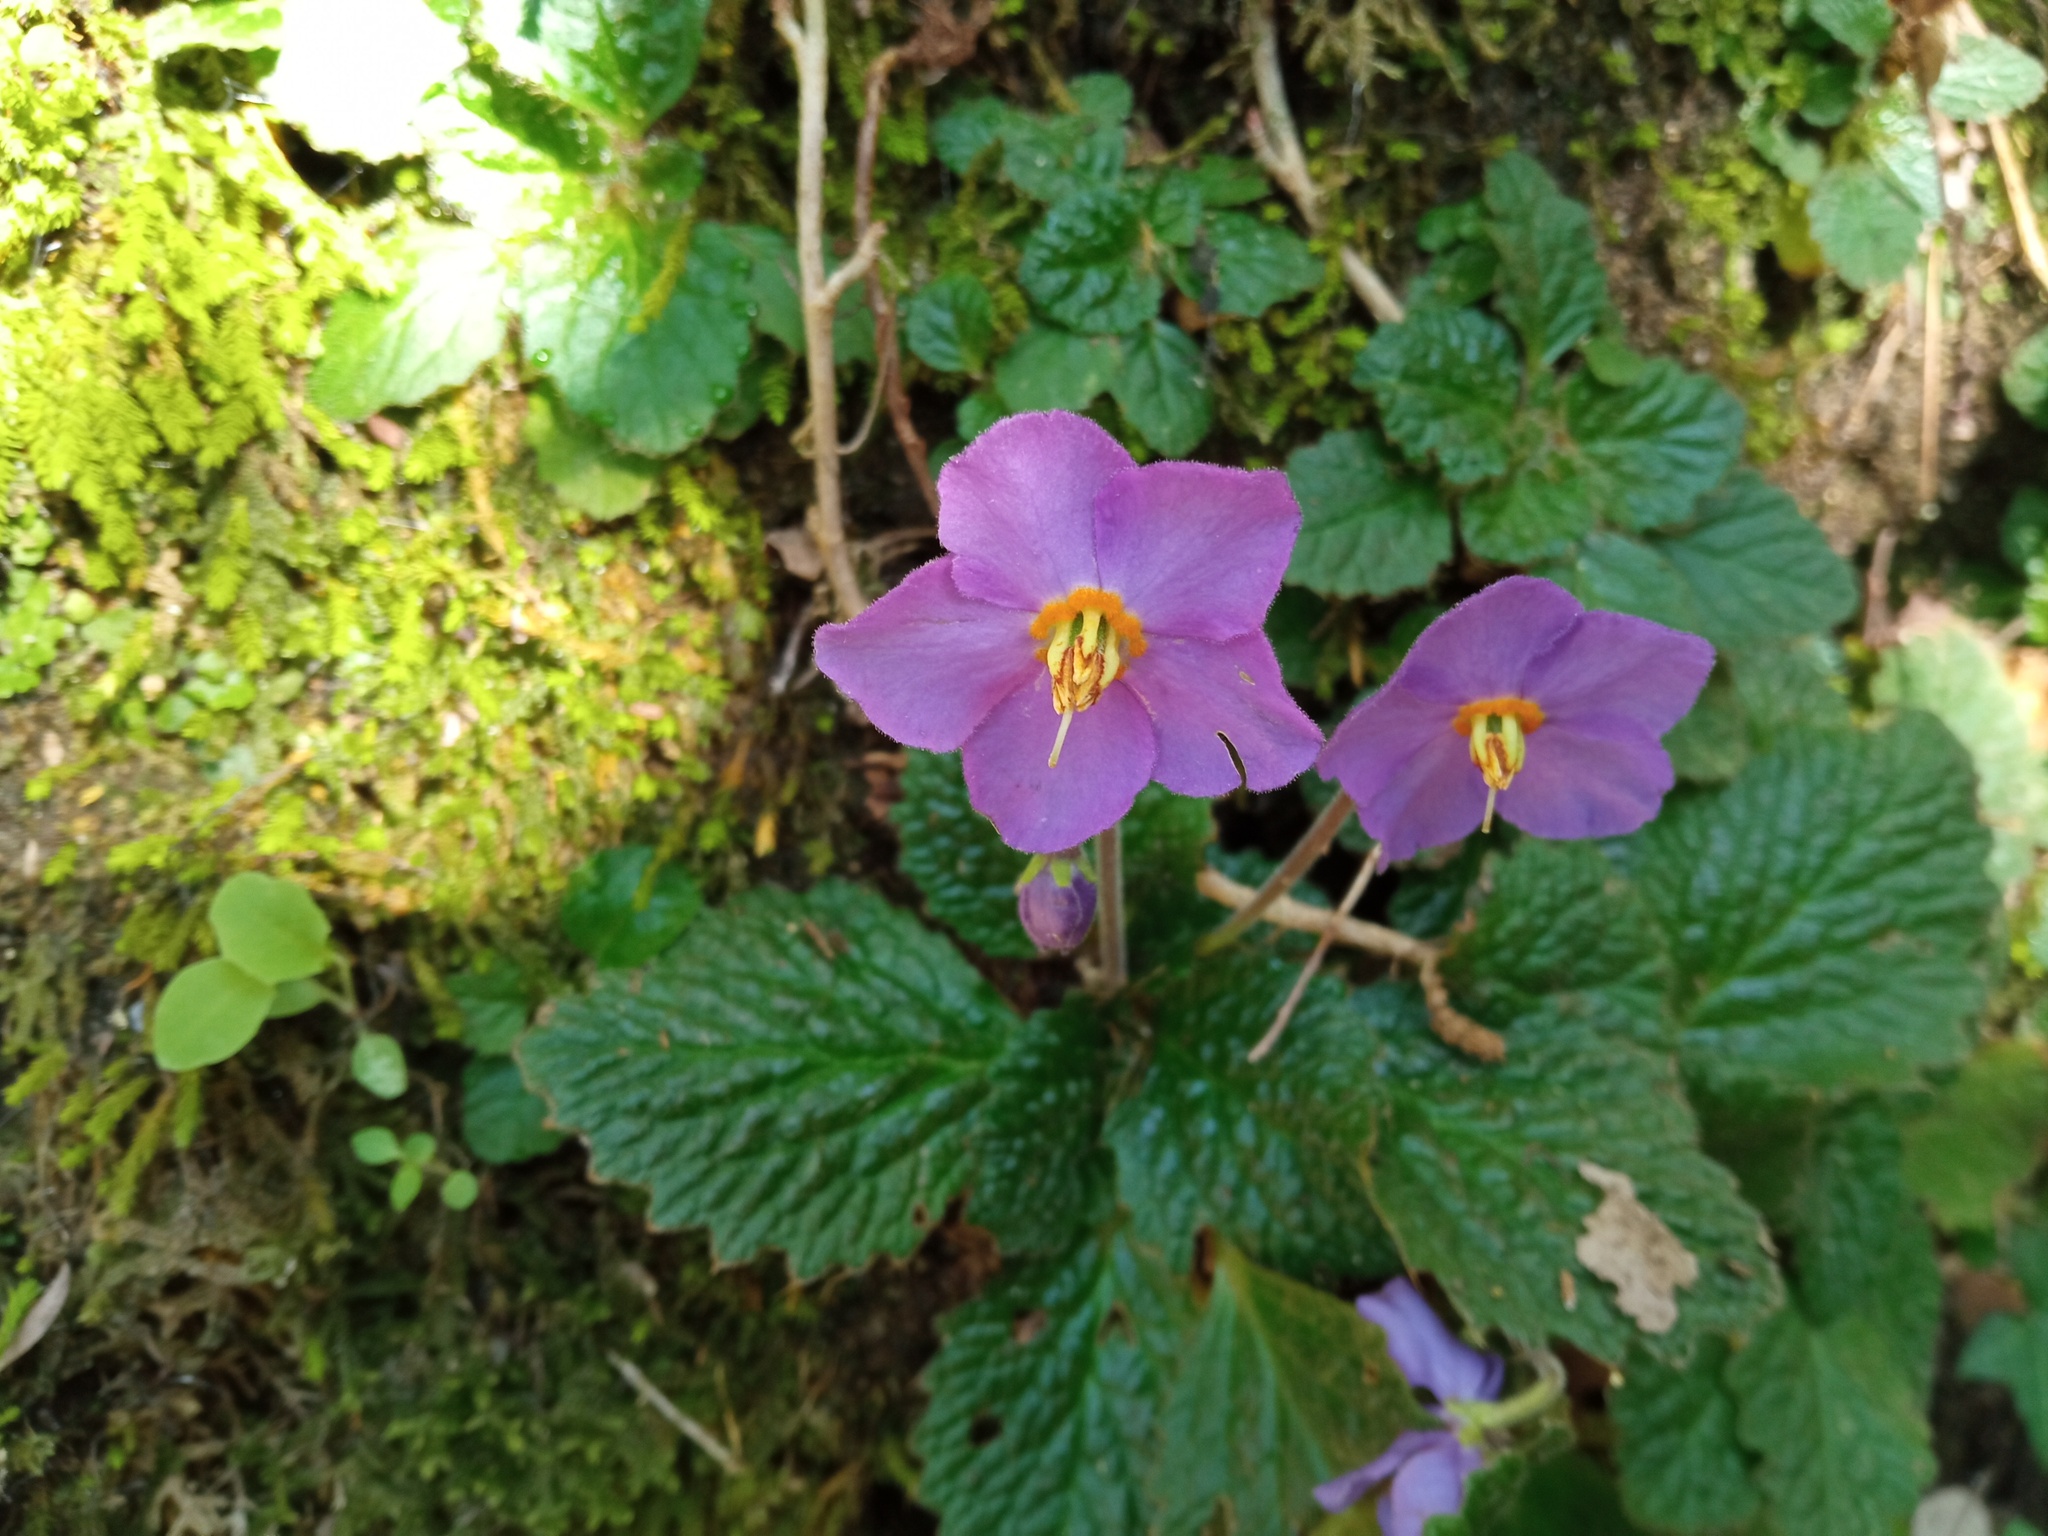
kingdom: Plantae
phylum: Tracheophyta
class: Magnoliopsida
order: Lamiales
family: Gesneriaceae
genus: Ramonda
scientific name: Ramonda myconi
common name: Pyrenean-violet
